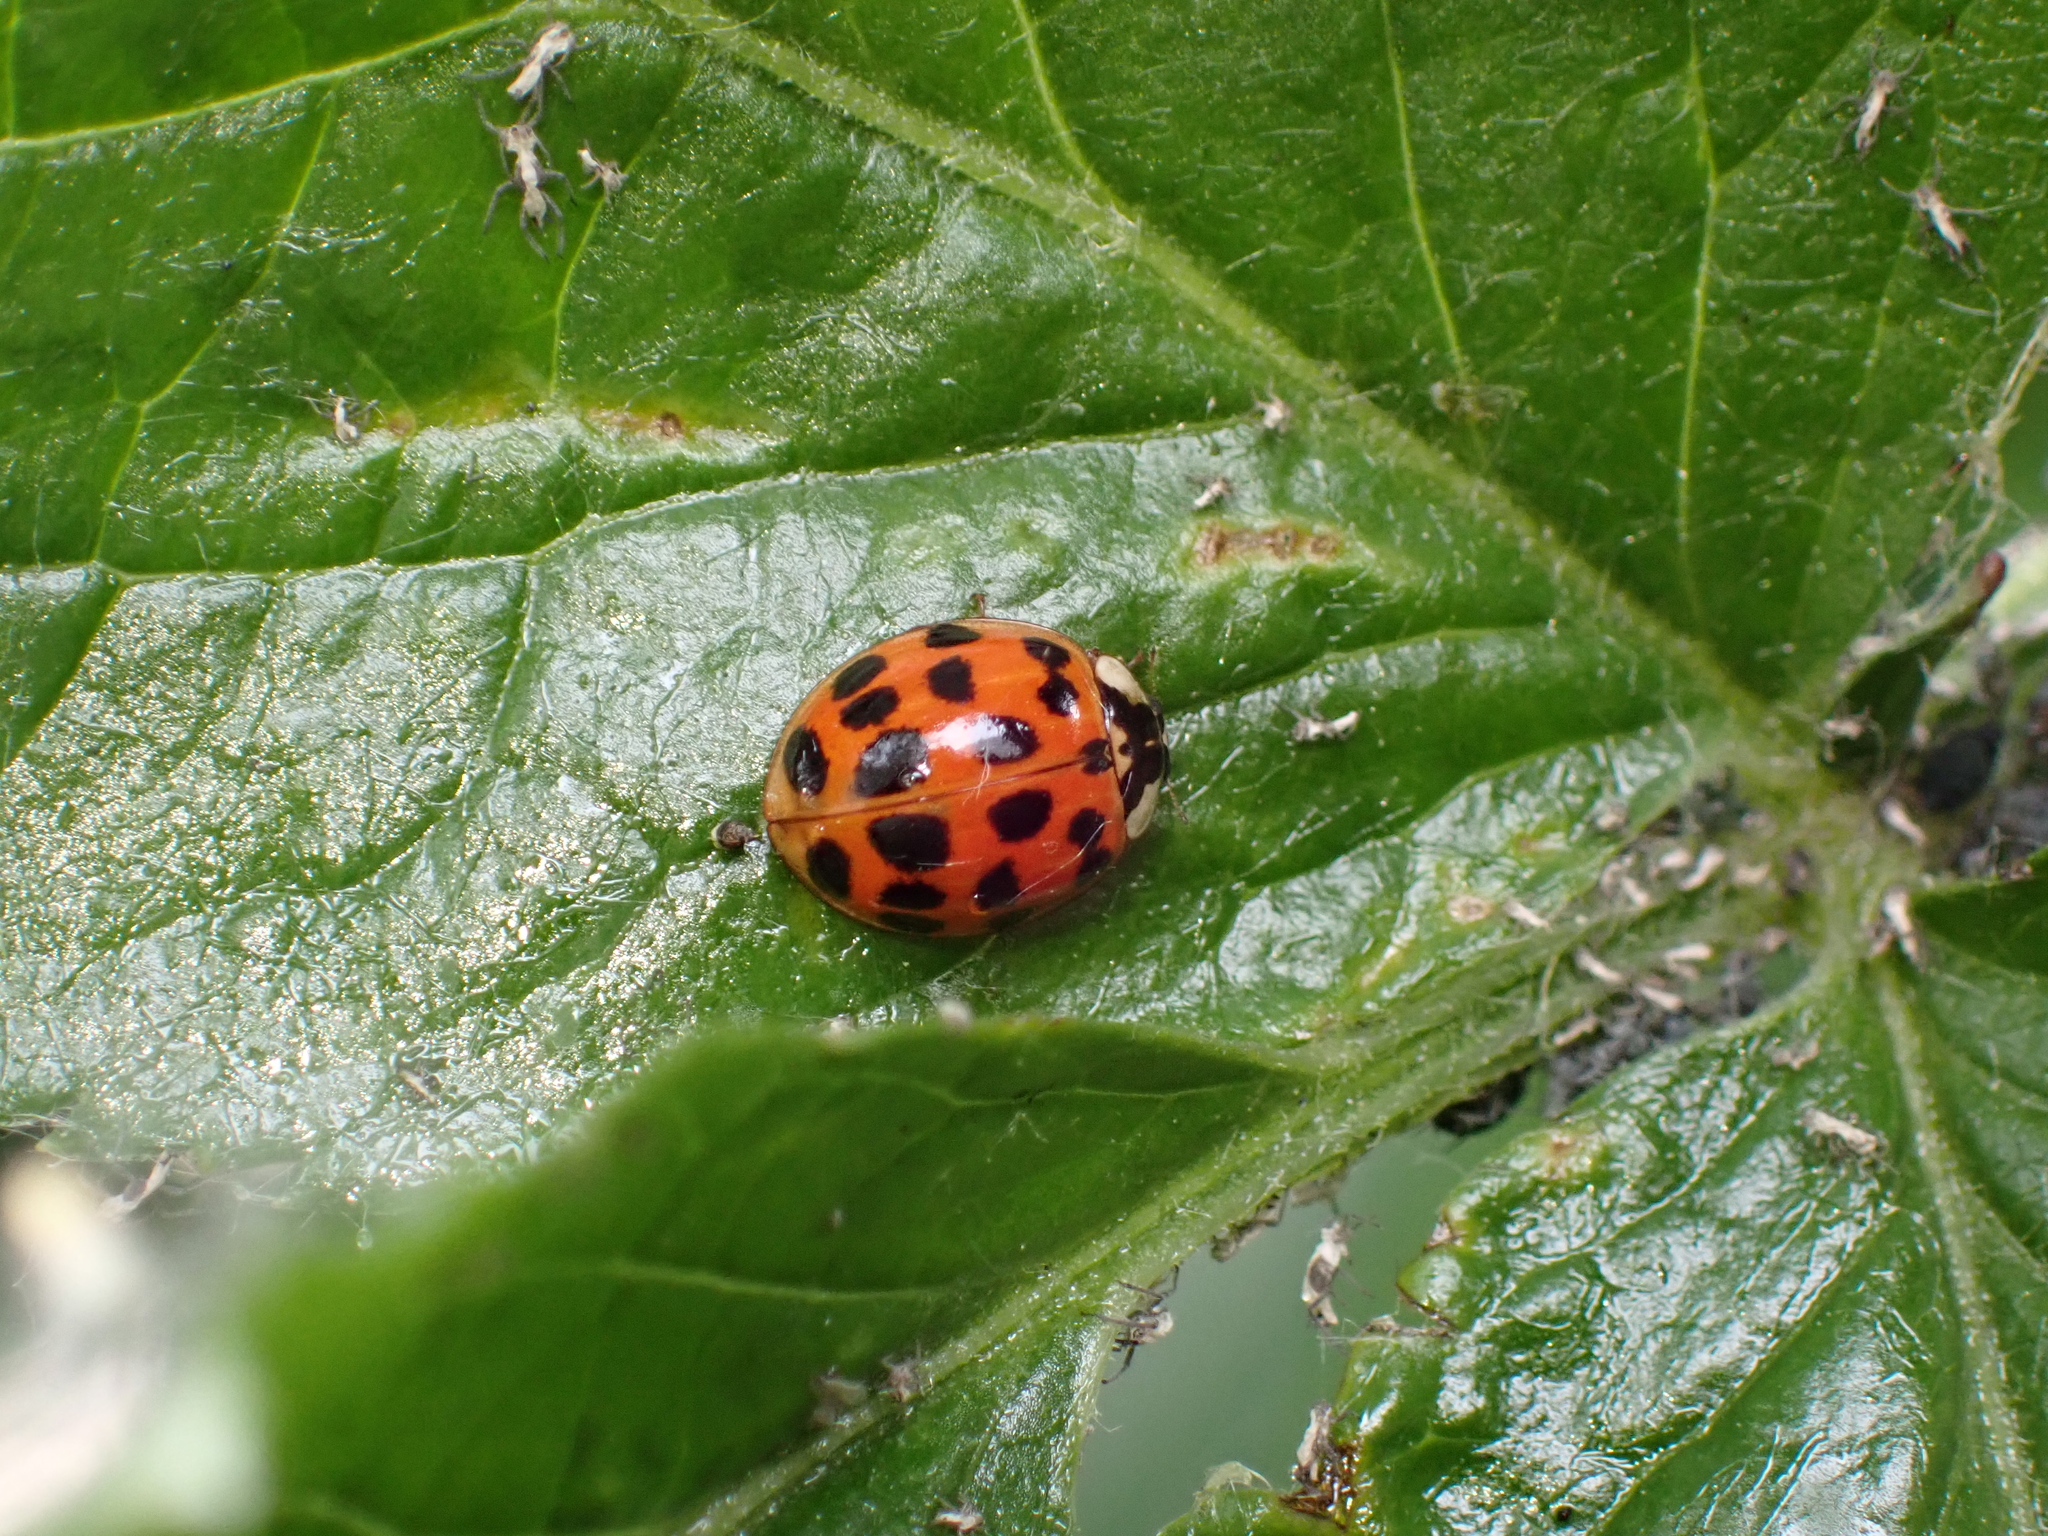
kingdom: Animalia
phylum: Arthropoda
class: Insecta
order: Coleoptera
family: Coccinellidae
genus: Harmonia
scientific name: Harmonia axyridis
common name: Harlequin ladybird
